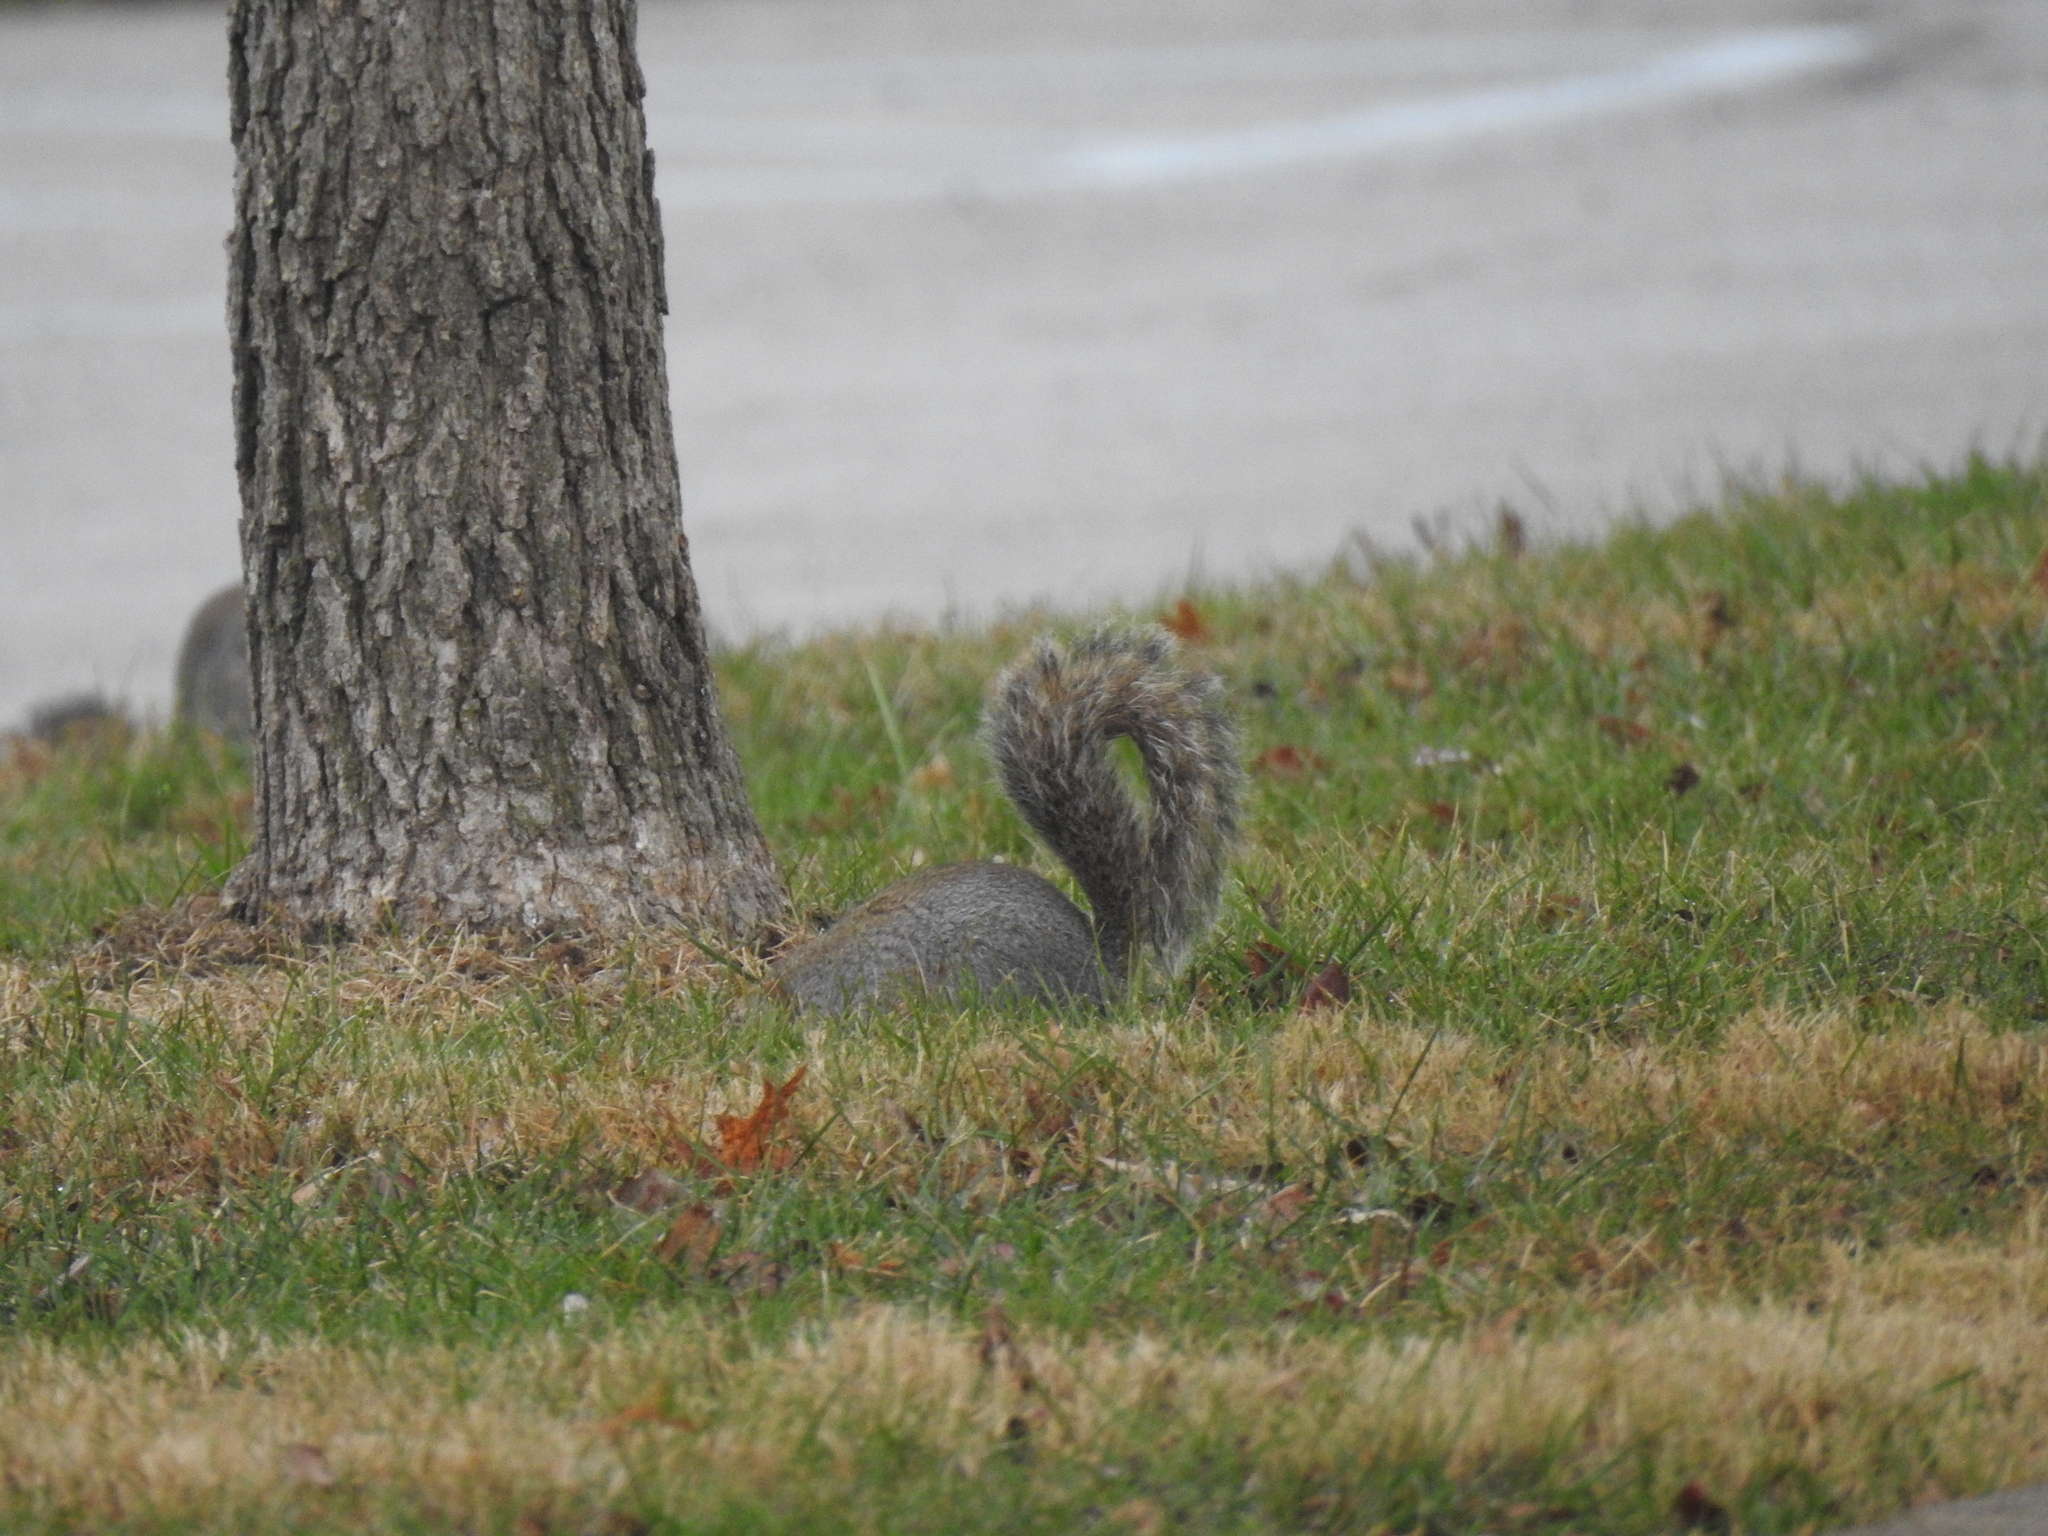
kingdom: Animalia
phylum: Chordata
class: Mammalia
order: Rodentia
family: Sciuridae
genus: Sciurus
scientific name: Sciurus carolinensis
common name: Eastern gray squirrel
